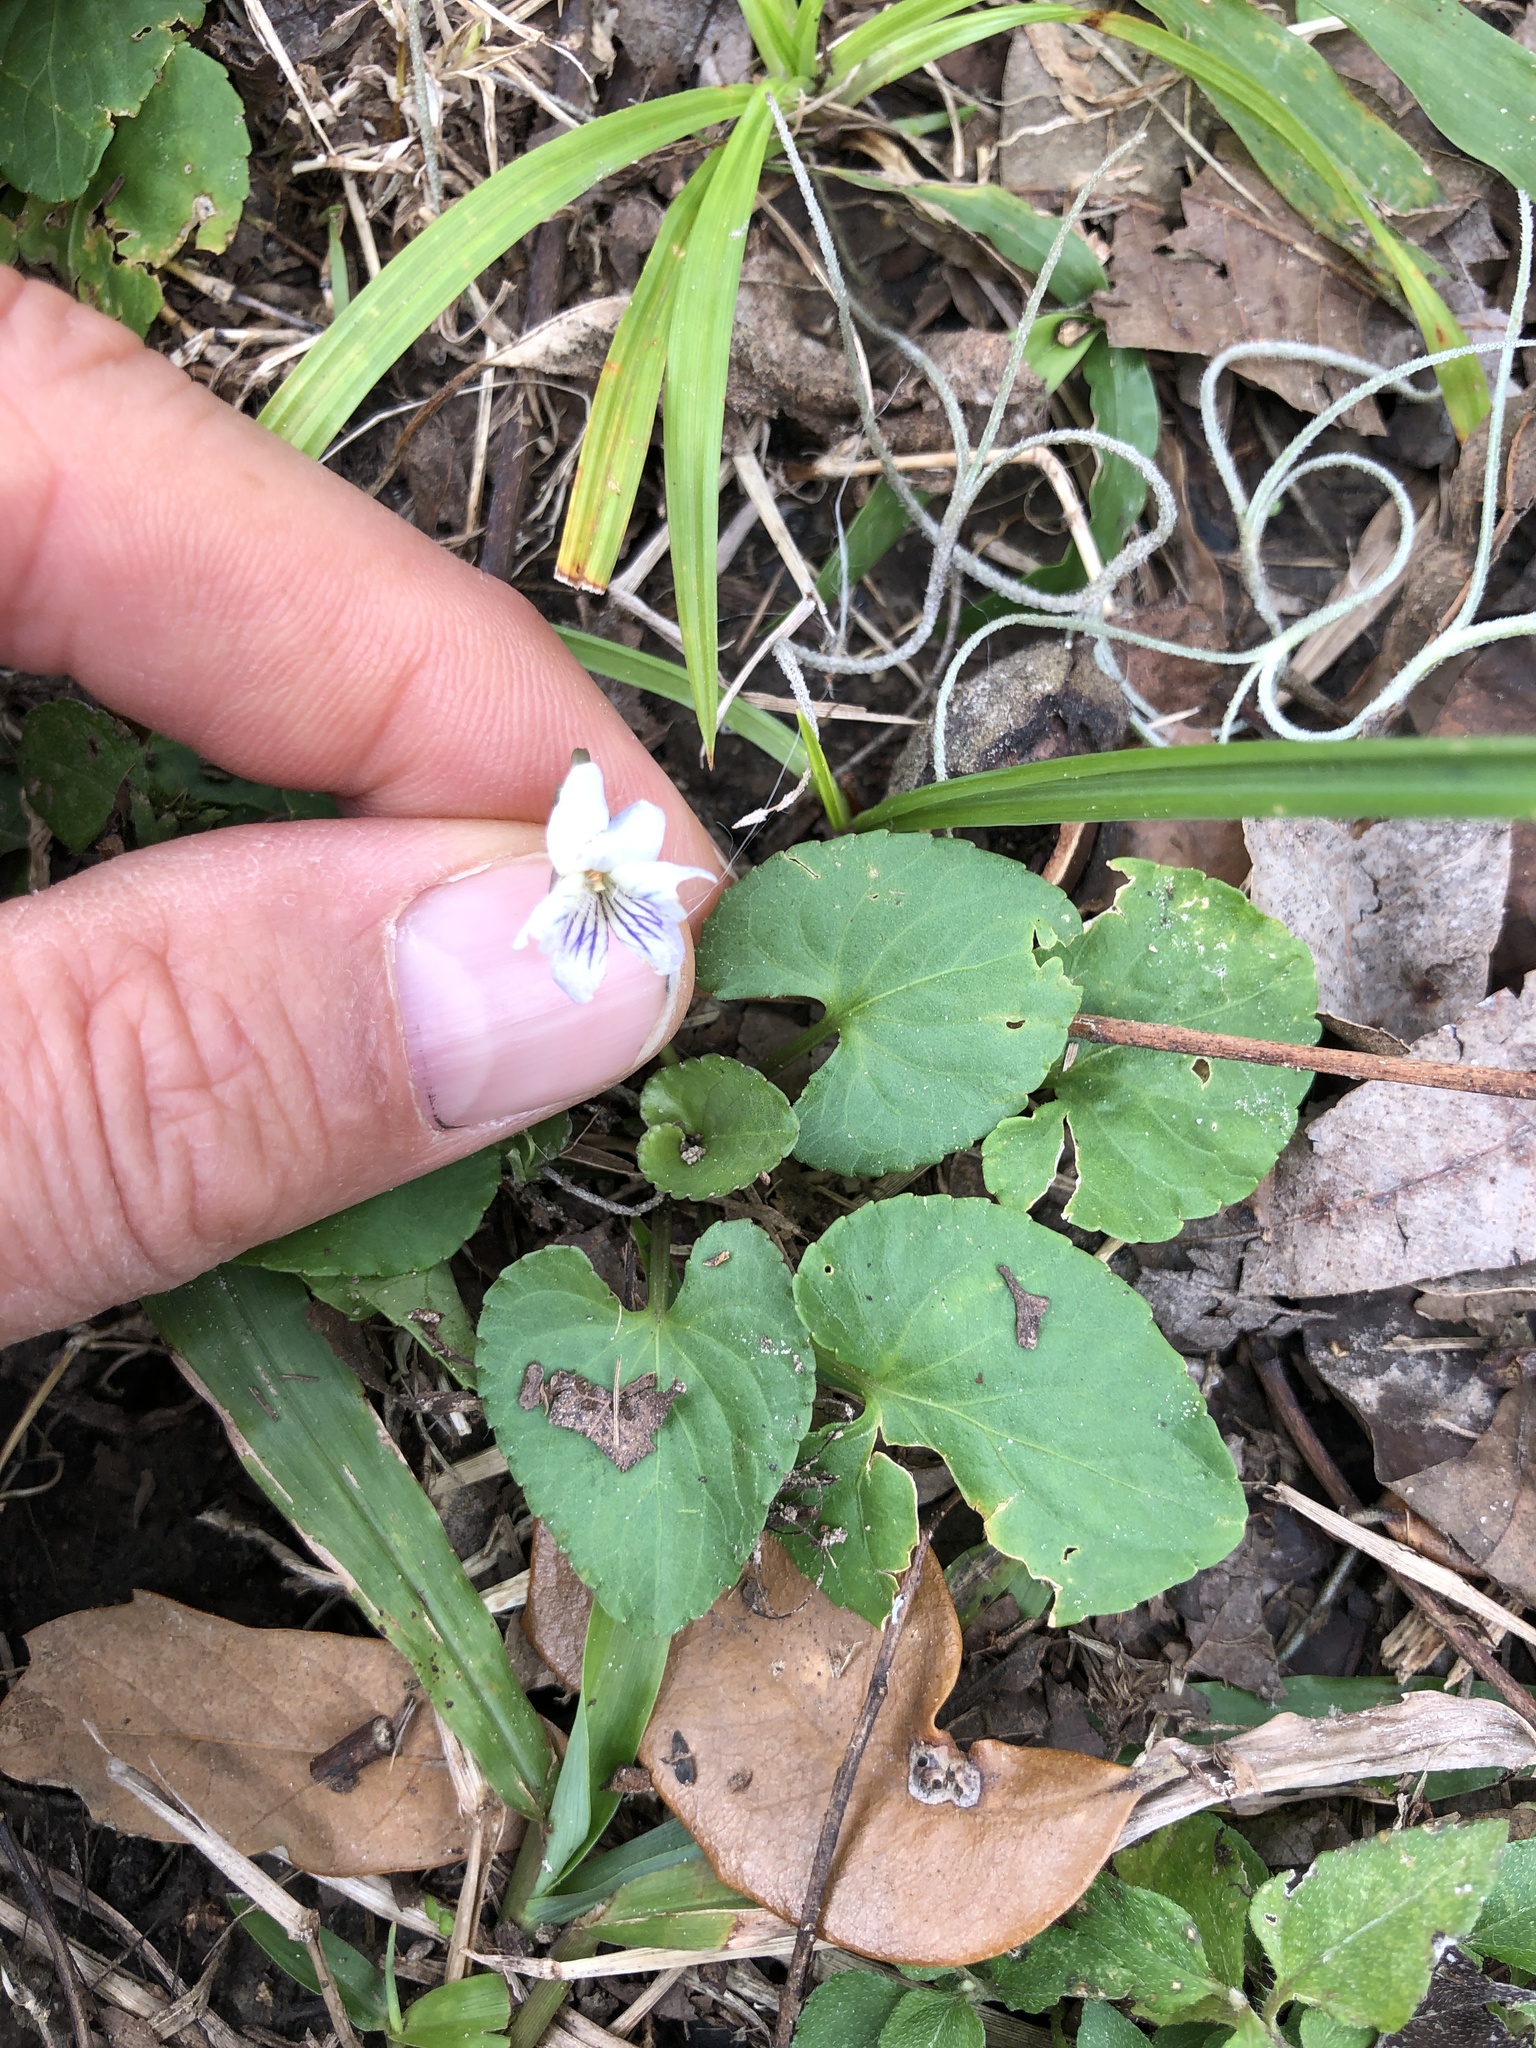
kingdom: Plantae
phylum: Tracheophyta
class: Magnoliopsida
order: Malpighiales
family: Violaceae
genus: Viola
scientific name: Viola missouriensis
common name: Missouri violet
